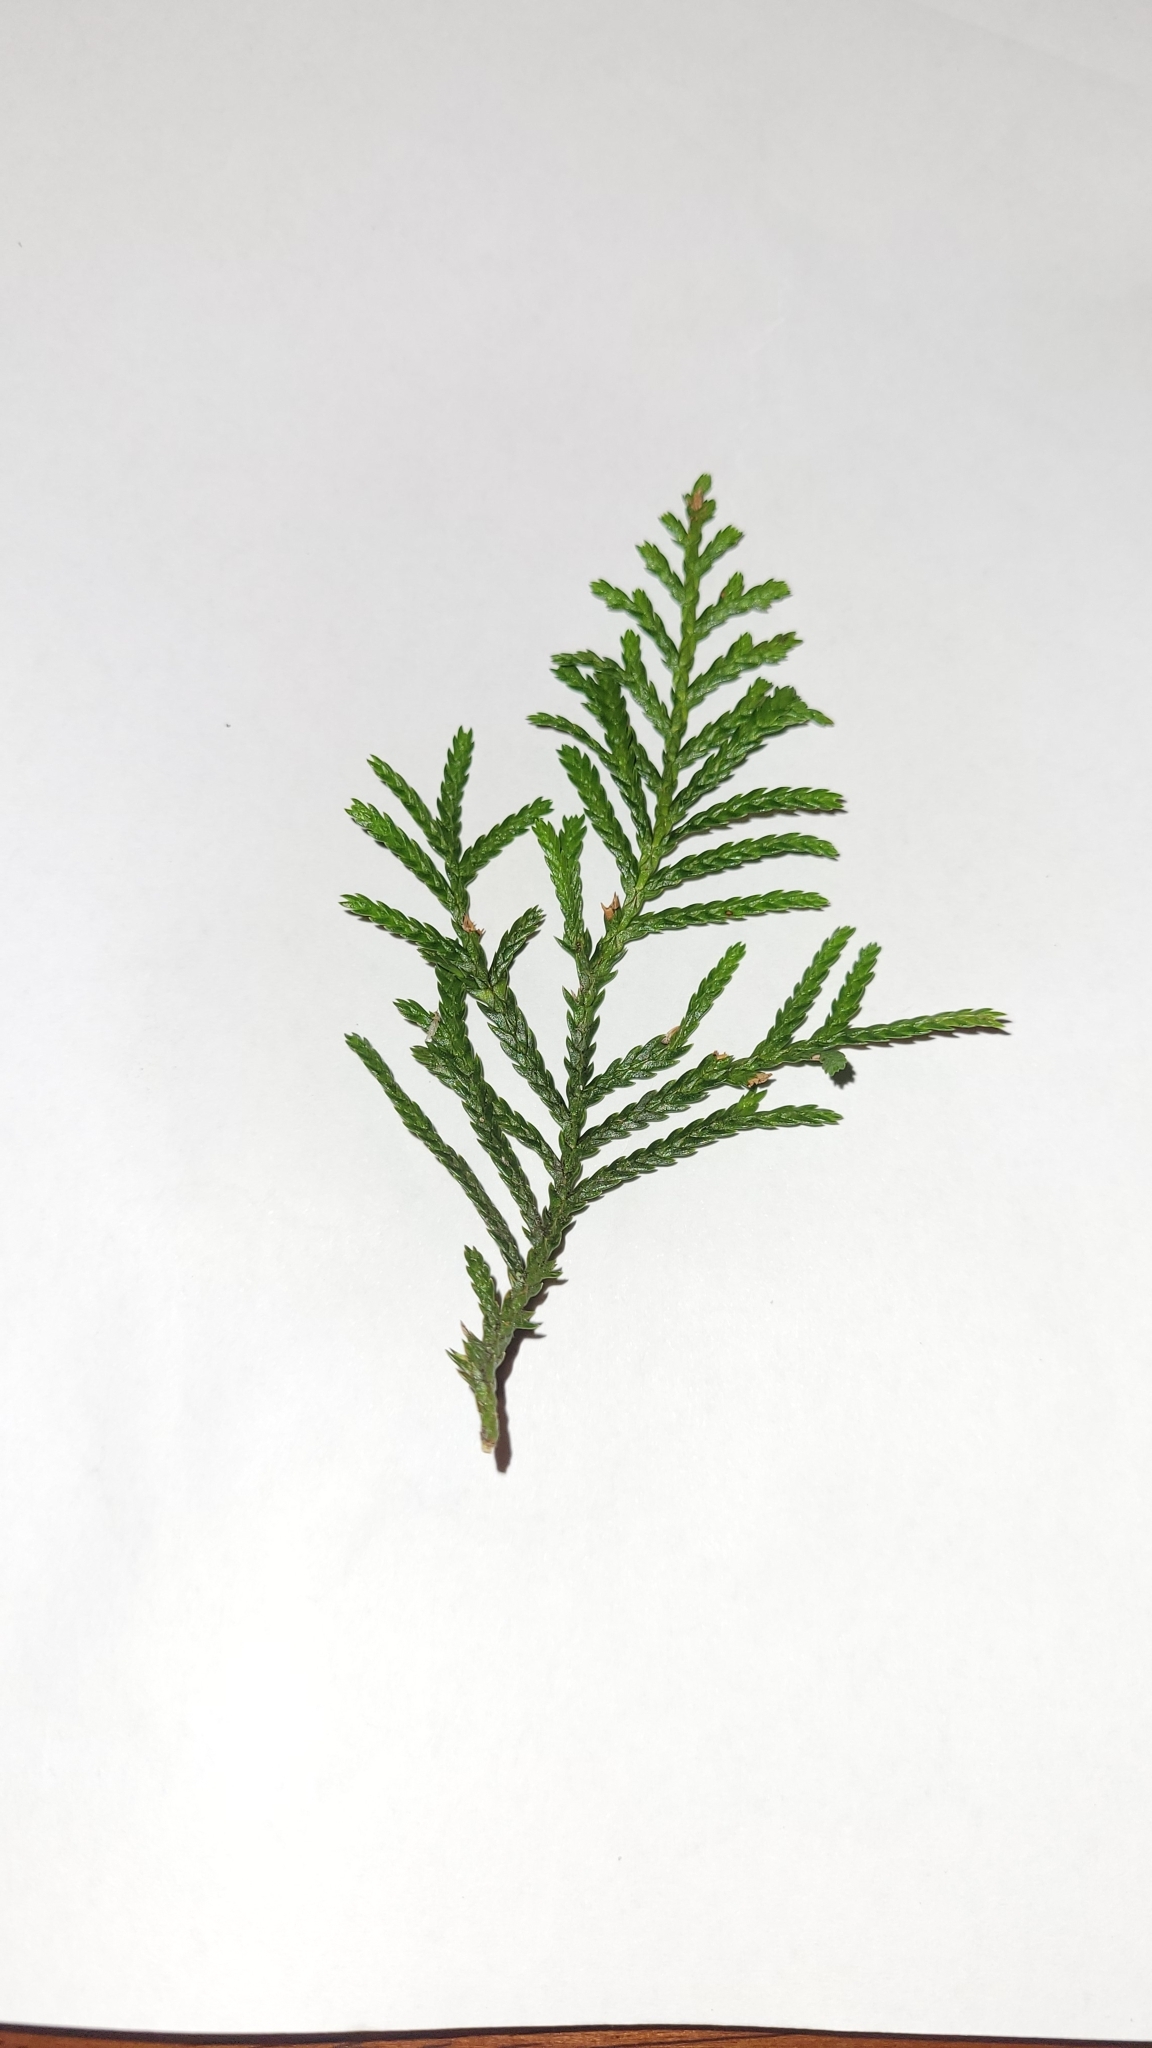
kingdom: Plantae
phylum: Tracheophyta
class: Pinopsida
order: Pinales
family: Cupressaceae
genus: Libocedrus
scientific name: Libocedrus bidwillii
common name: Cedar
